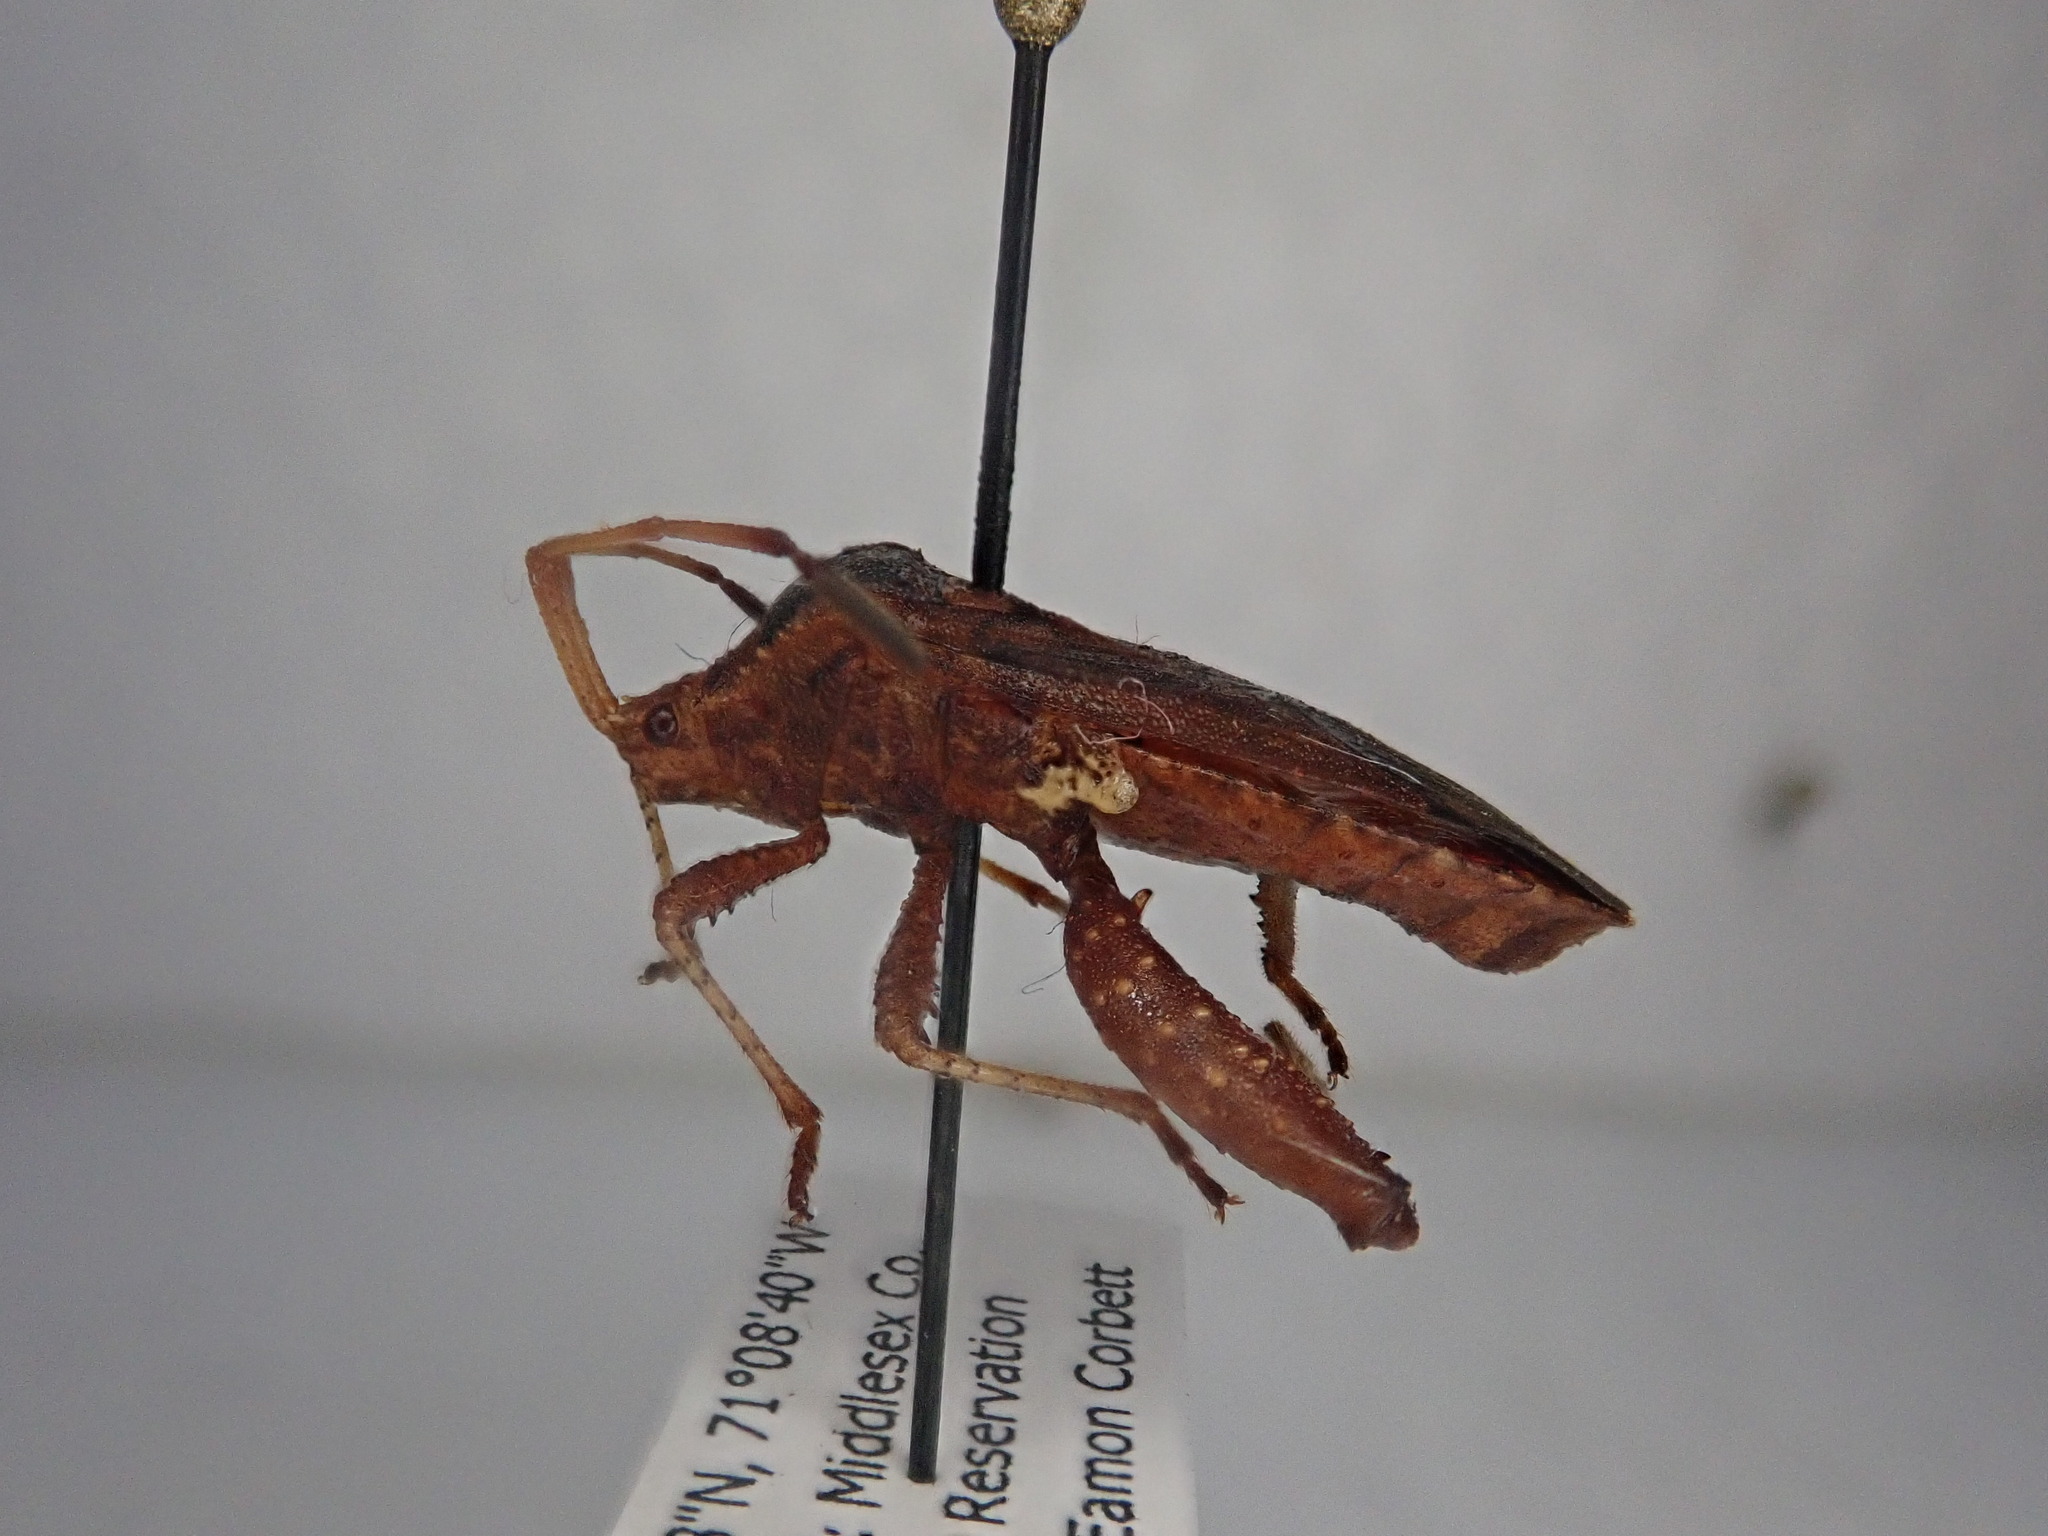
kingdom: Animalia
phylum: Arthropoda
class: Insecta
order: Hemiptera
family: Coreidae
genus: Euthochtha
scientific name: Euthochtha galeator
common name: Helmeted squash bug
